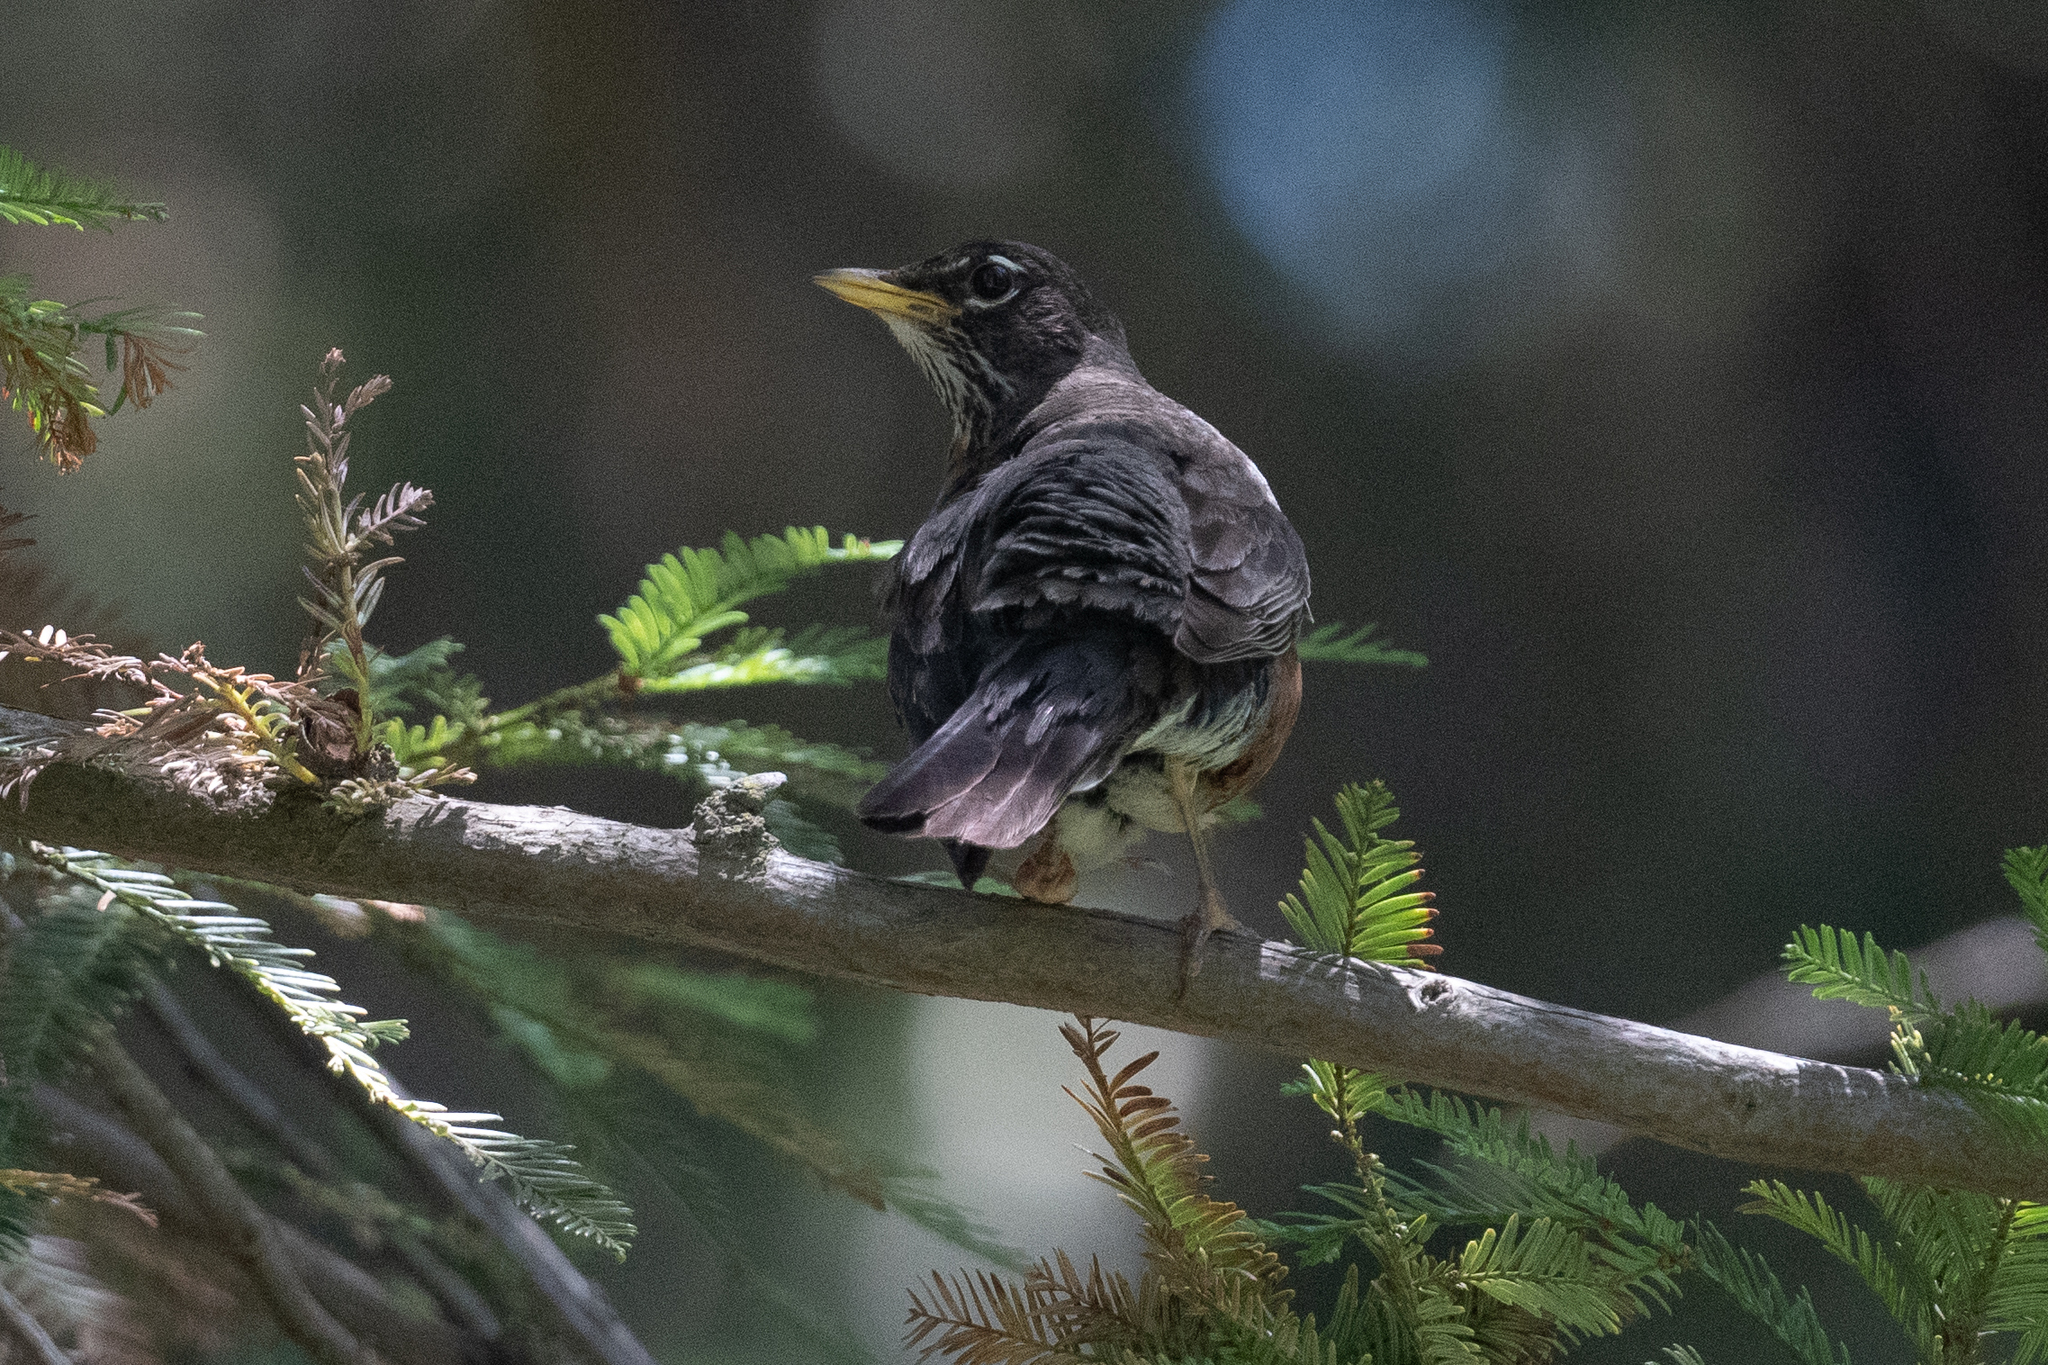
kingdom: Animalia
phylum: Chordata
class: Aves
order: Passeriformes
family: Turdidae
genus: Turdus
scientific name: Turdus migratorius
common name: American robin
